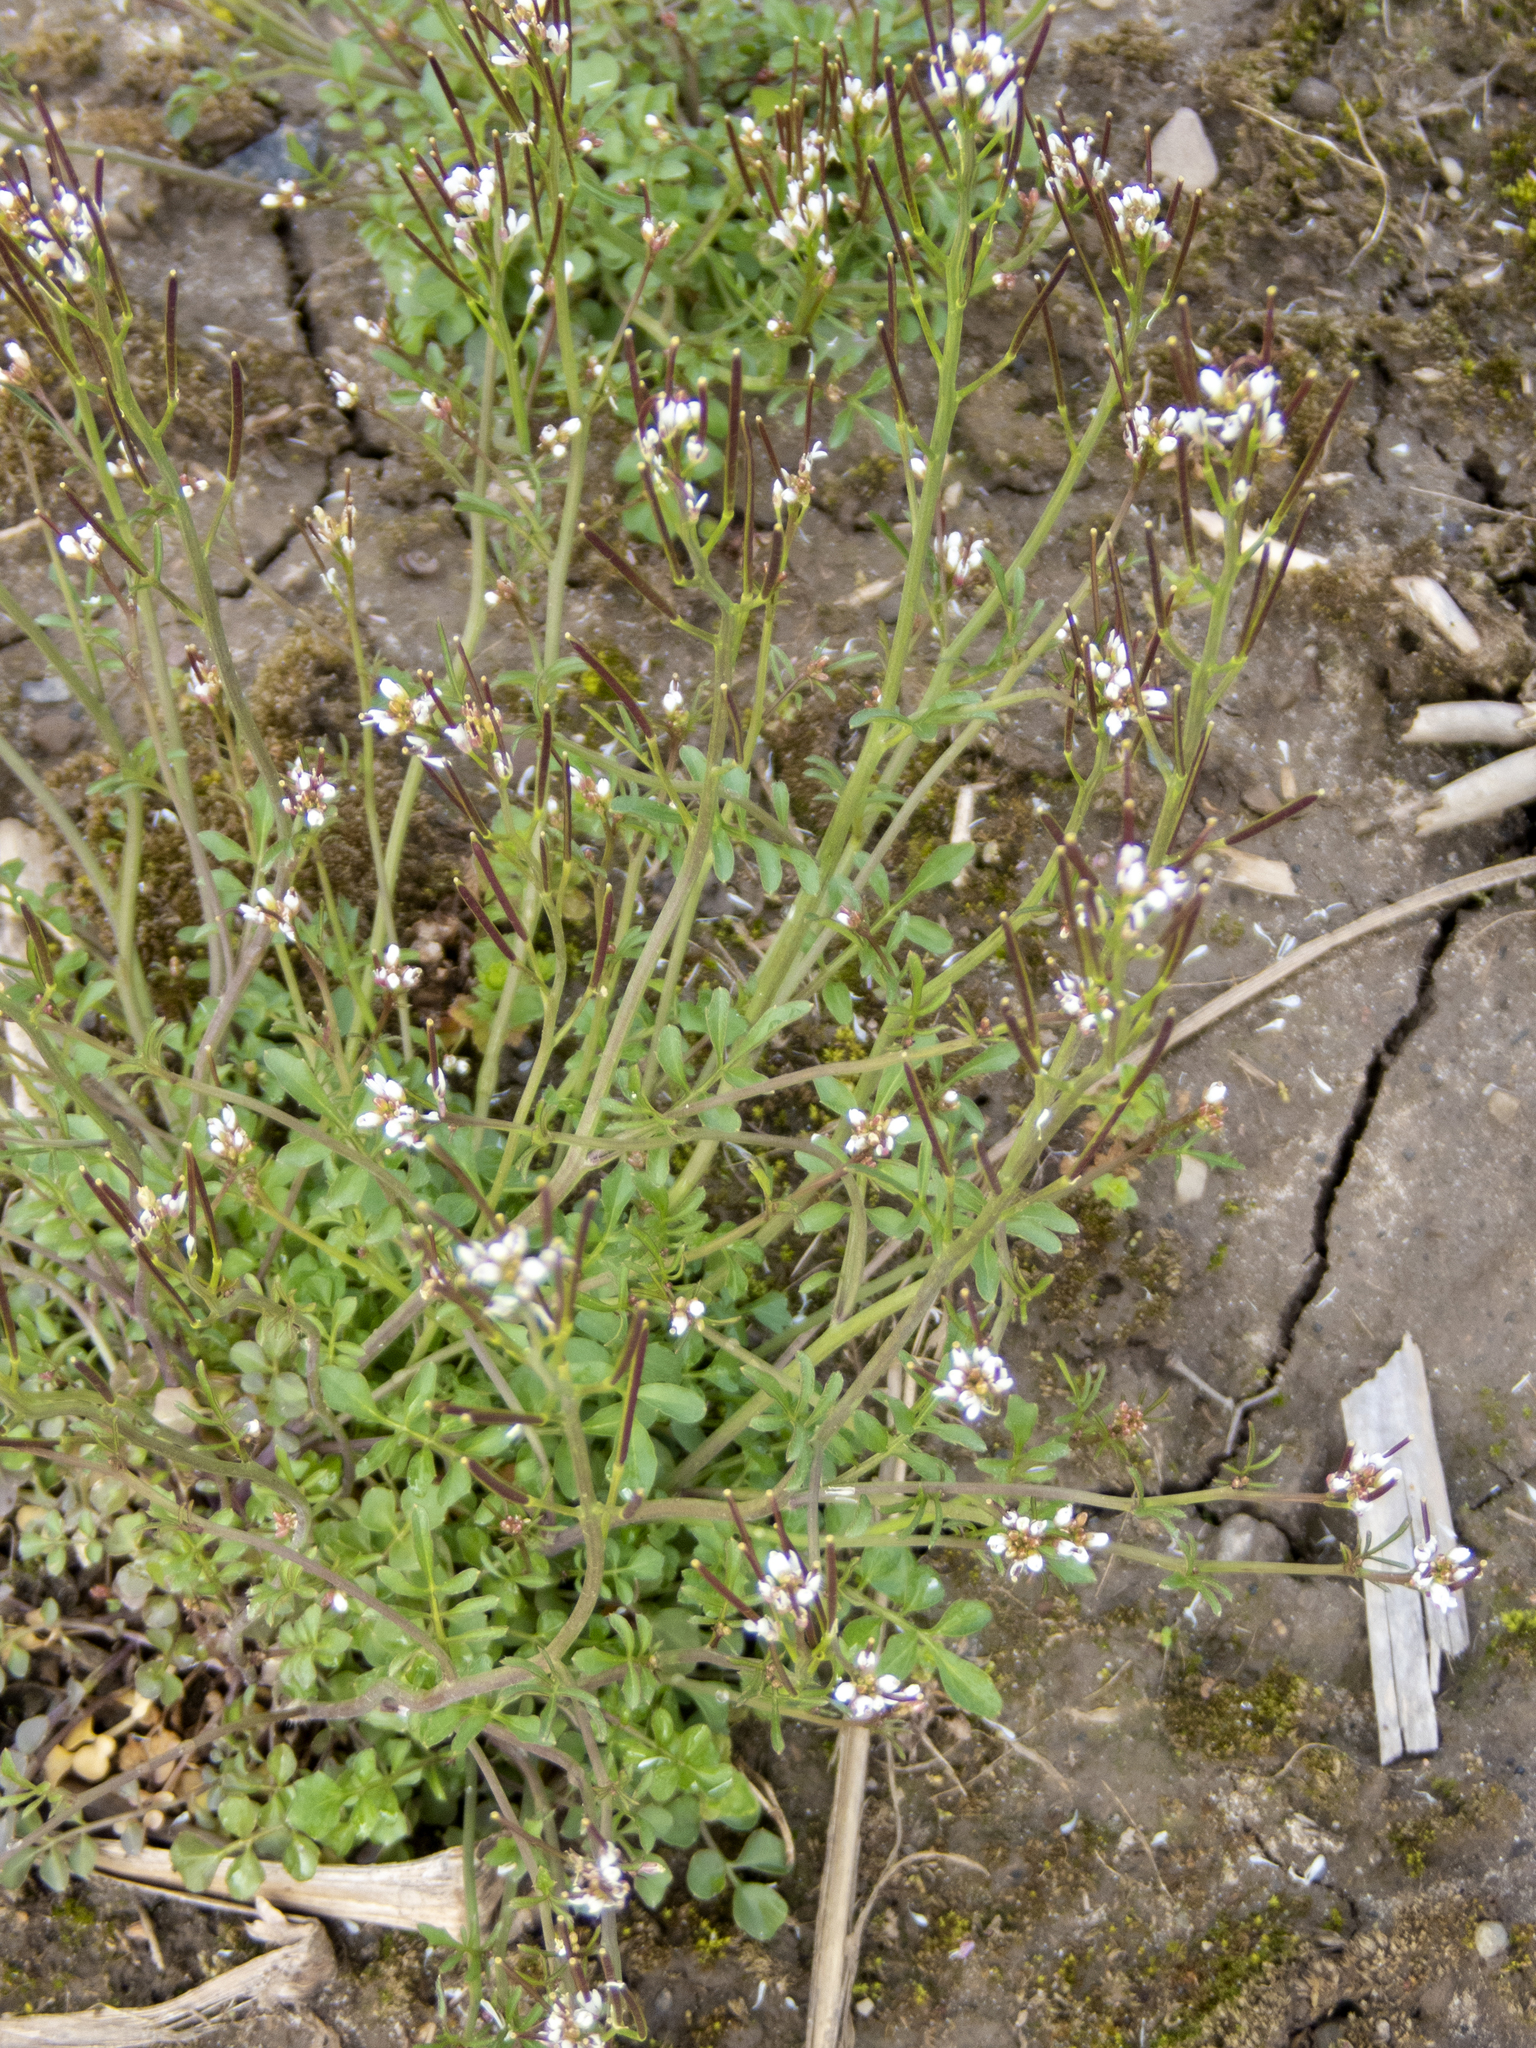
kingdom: Plantae
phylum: Tracheophyta
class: Magnoliopsida
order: Brassicales
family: Brassicaceae
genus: Cardamine
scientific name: Cardamine hirsuta
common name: Hairy bittercress
